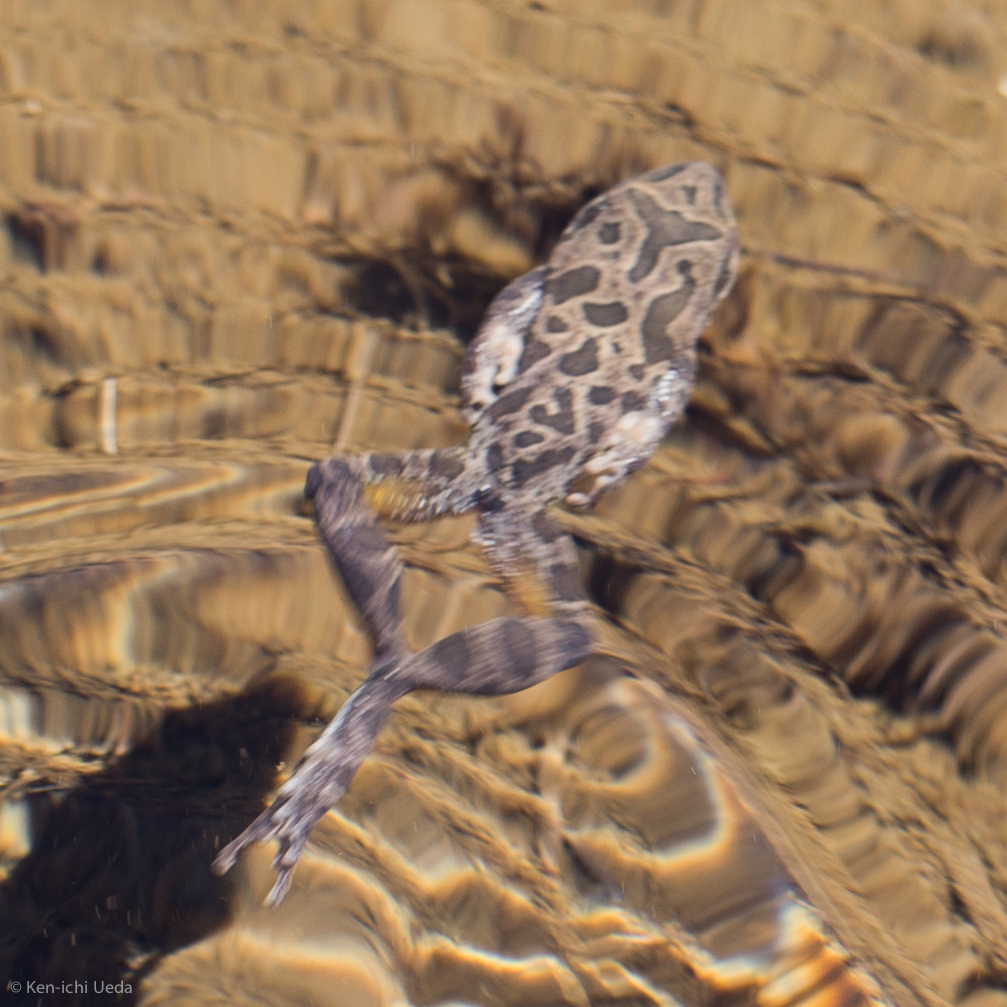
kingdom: Animalia
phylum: Chordata
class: Amphibia
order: Anura
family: Hylidae
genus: Pseudacris
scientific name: Pseudacris regilla
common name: Pacific chorus frog
